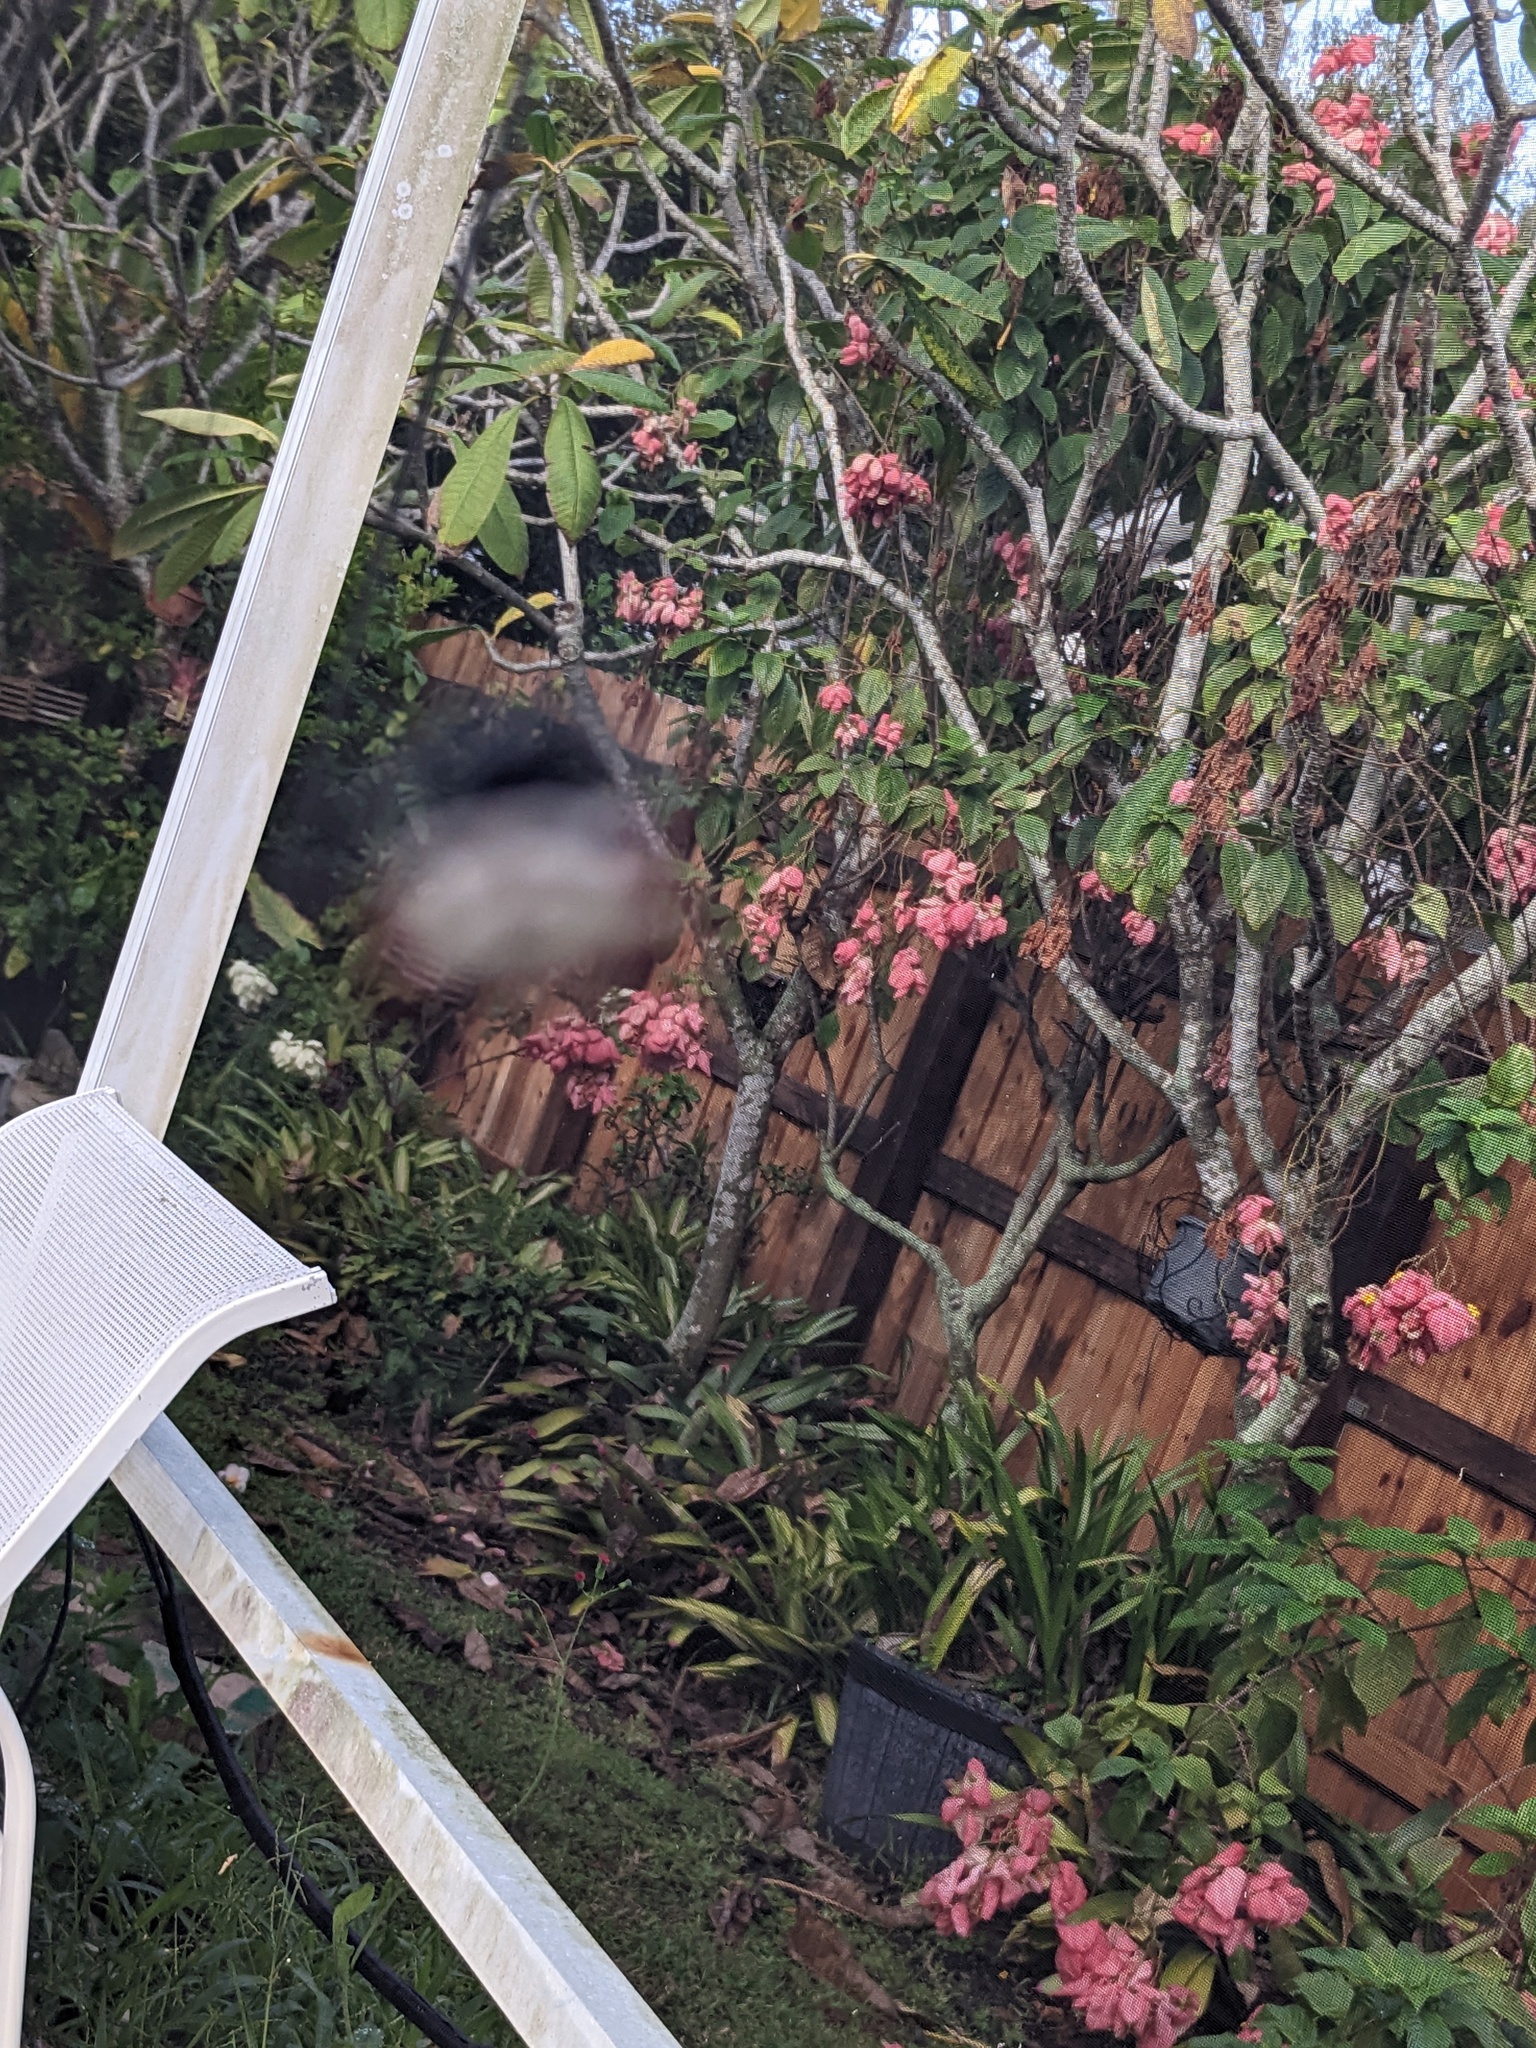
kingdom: Animalia
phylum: Arthropoda
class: Arachnida
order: Araneae
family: Araneidae
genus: Gasteracantha
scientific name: Gasteracantha cancriformis
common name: Orb weavers
